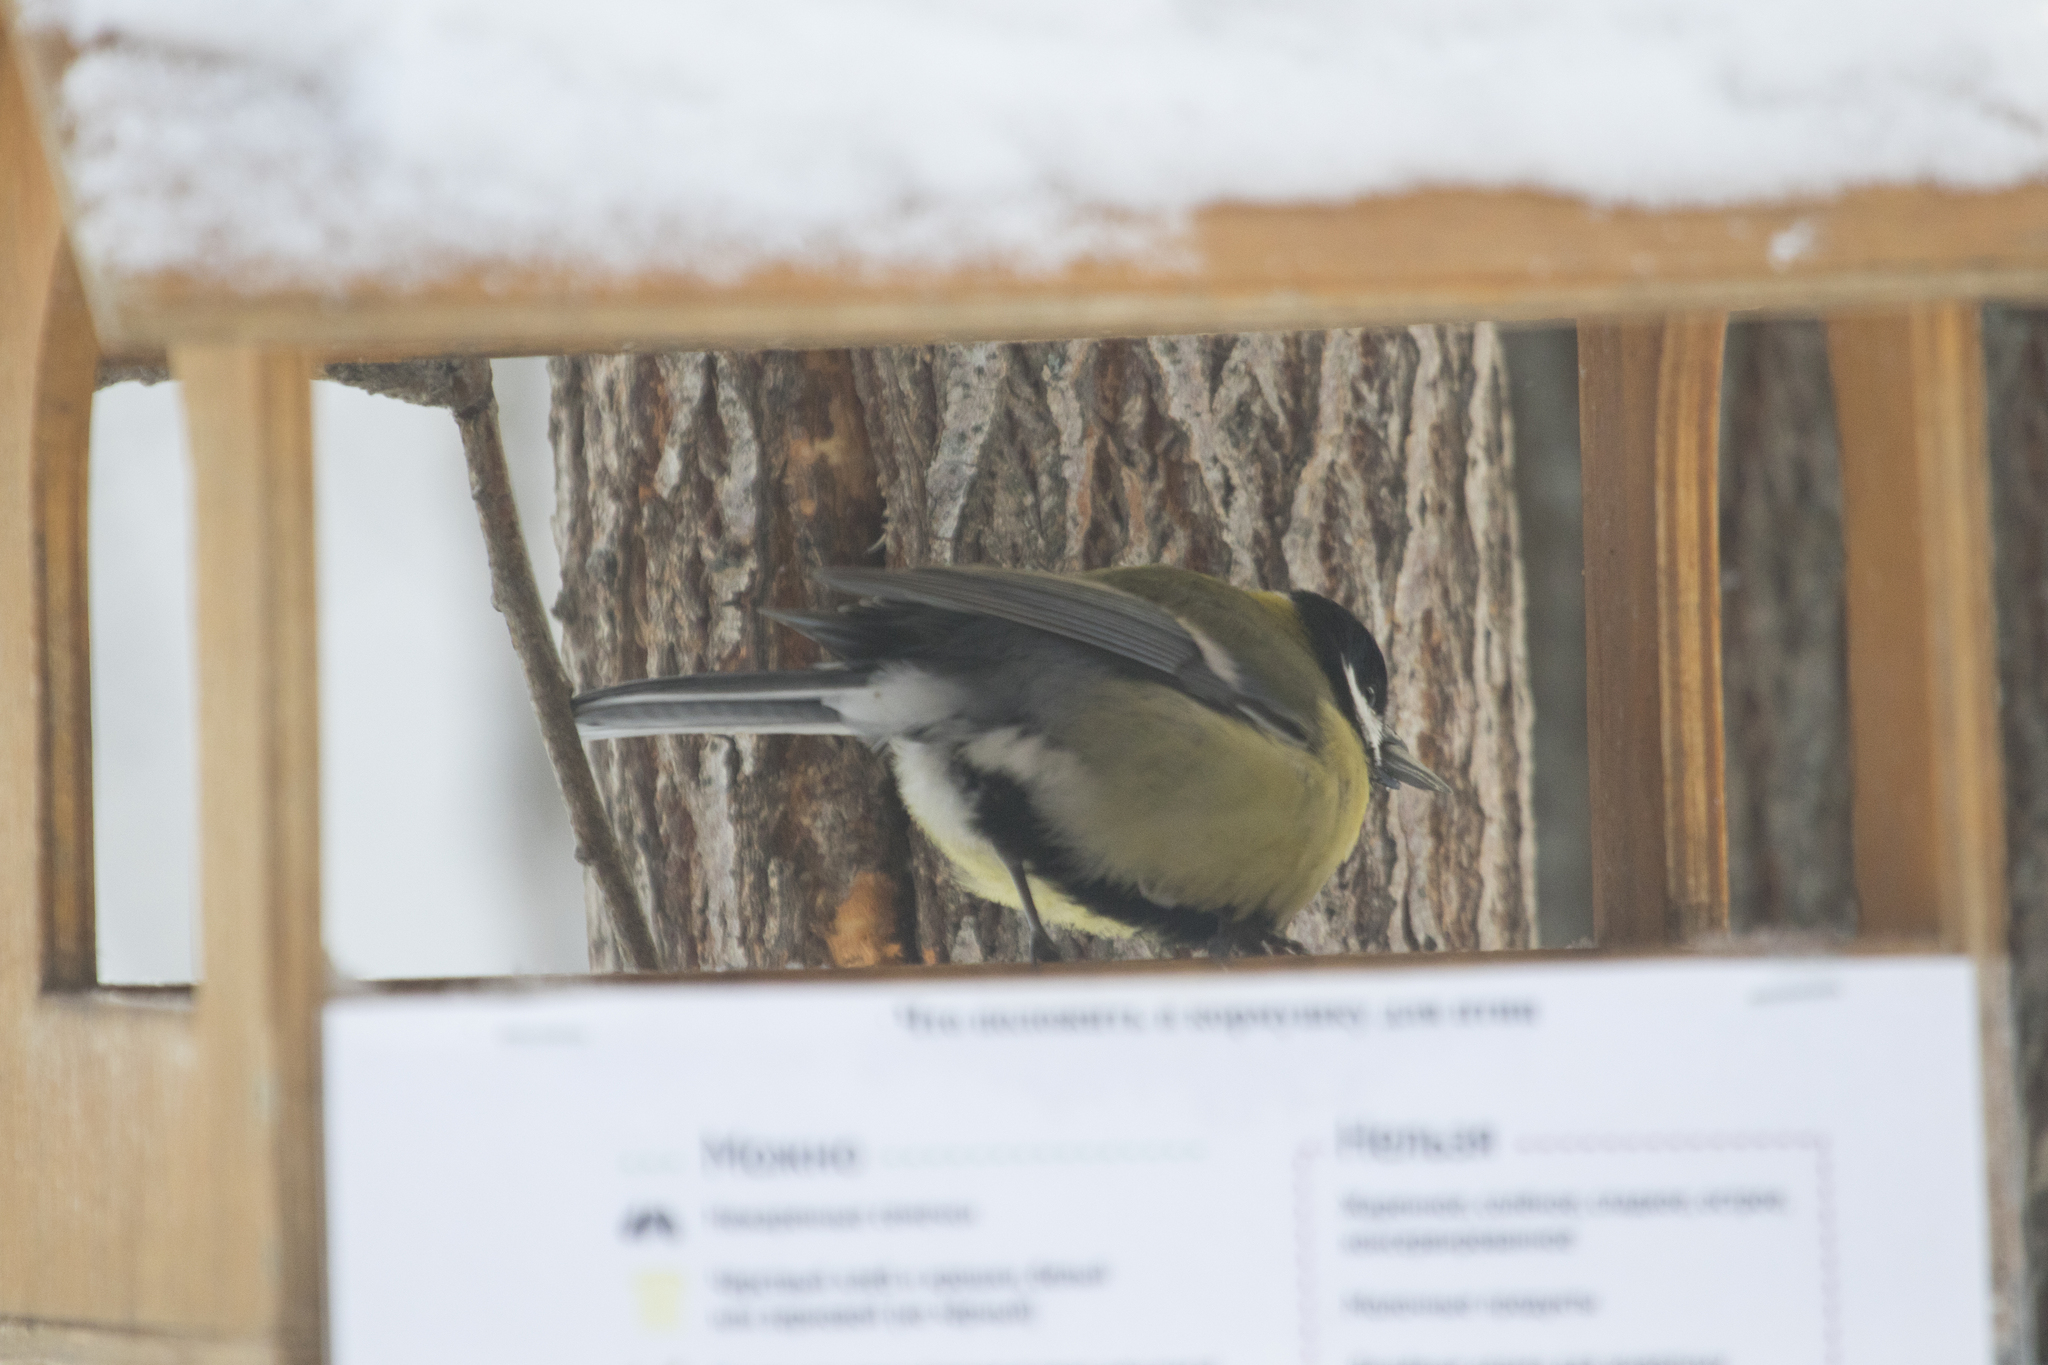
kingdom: Animalia
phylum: Chordata
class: Aves
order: Passeriformes
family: Paridae
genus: Parus
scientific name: Parus major
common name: Great tit
